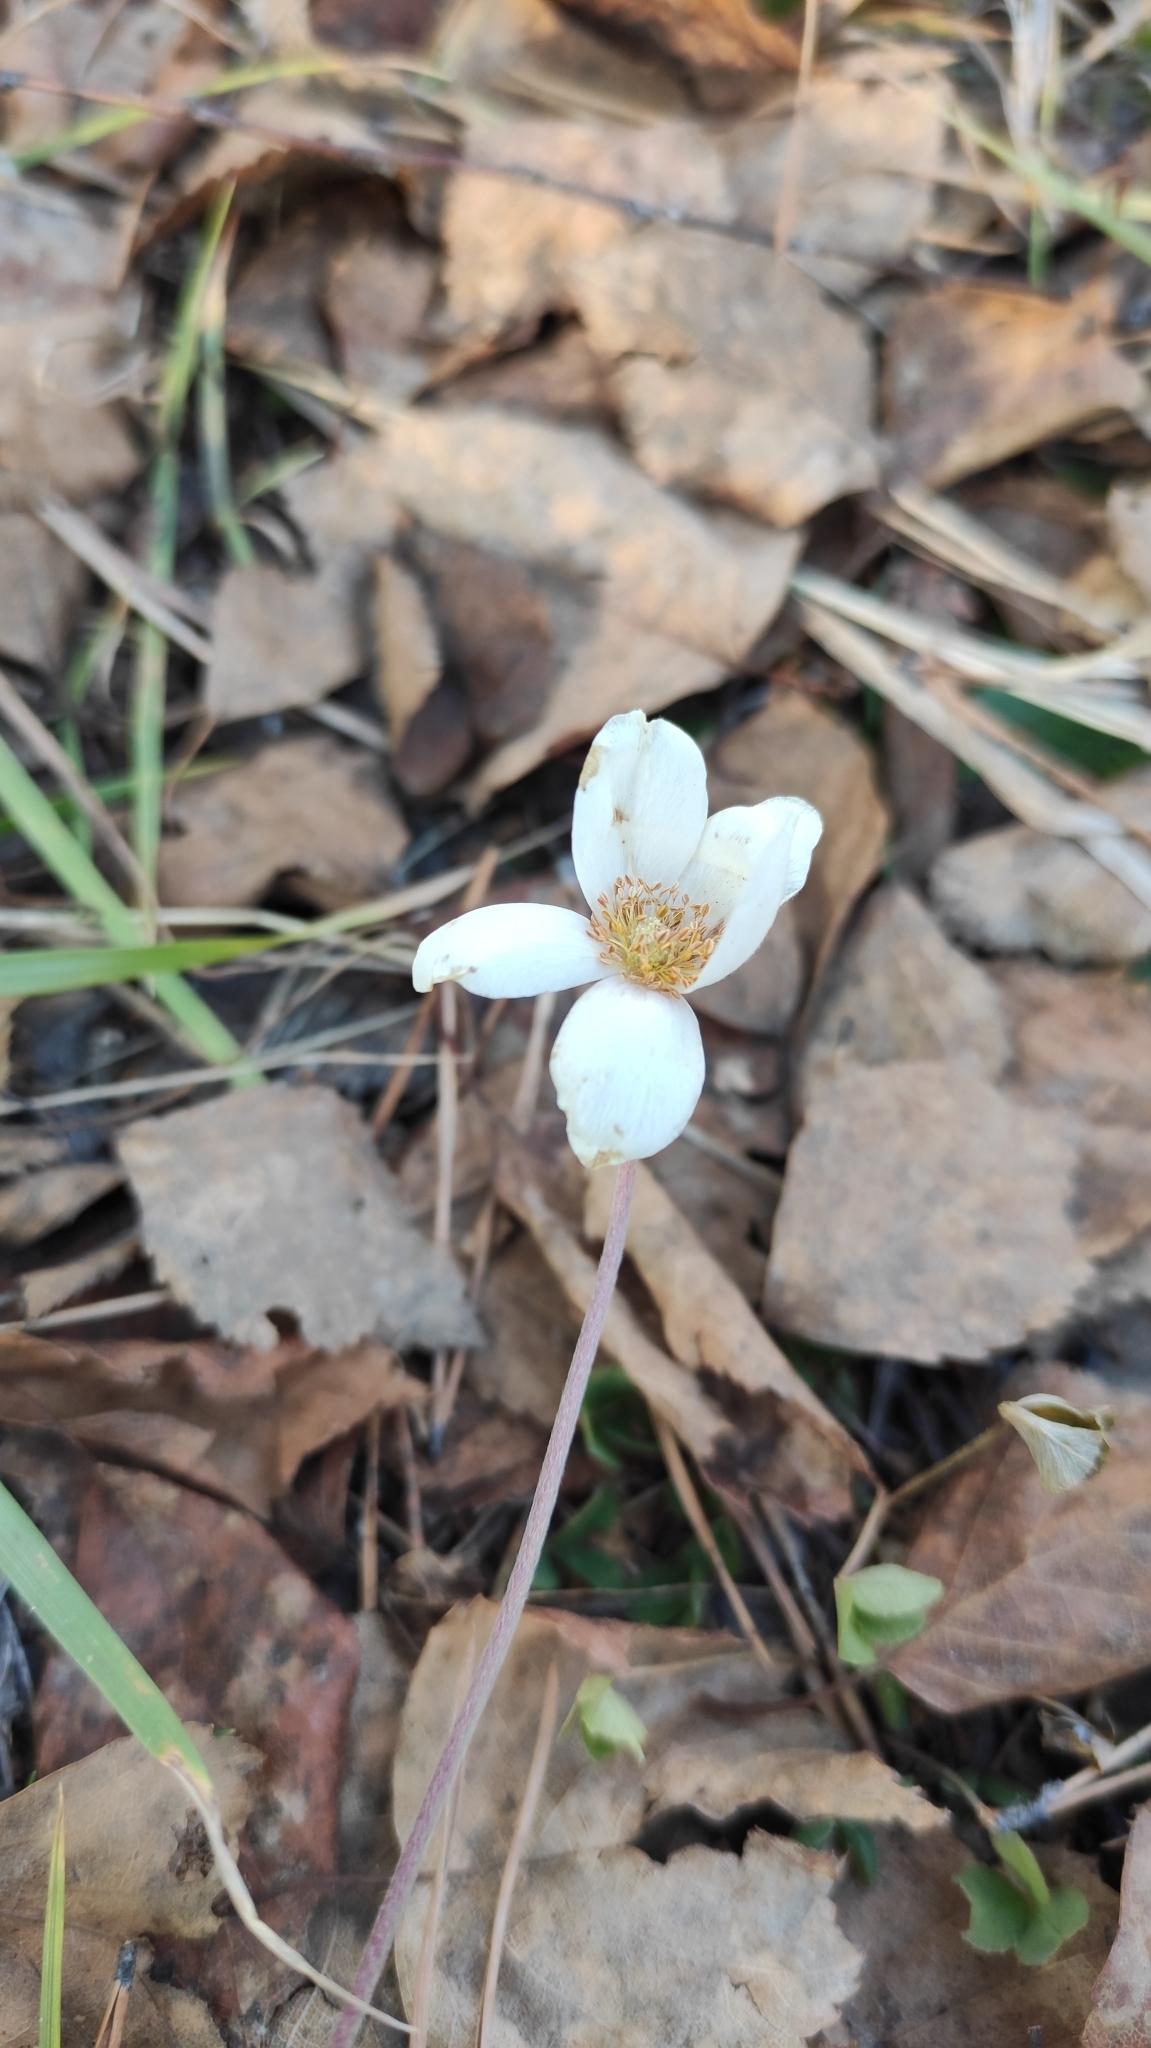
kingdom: Plantae
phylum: Tracheophyta
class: Magnoliopsida
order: Ranunculales
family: Ranunculaceae
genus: Anemone
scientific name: Anemone sylvestris
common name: Snowdrop anemone
